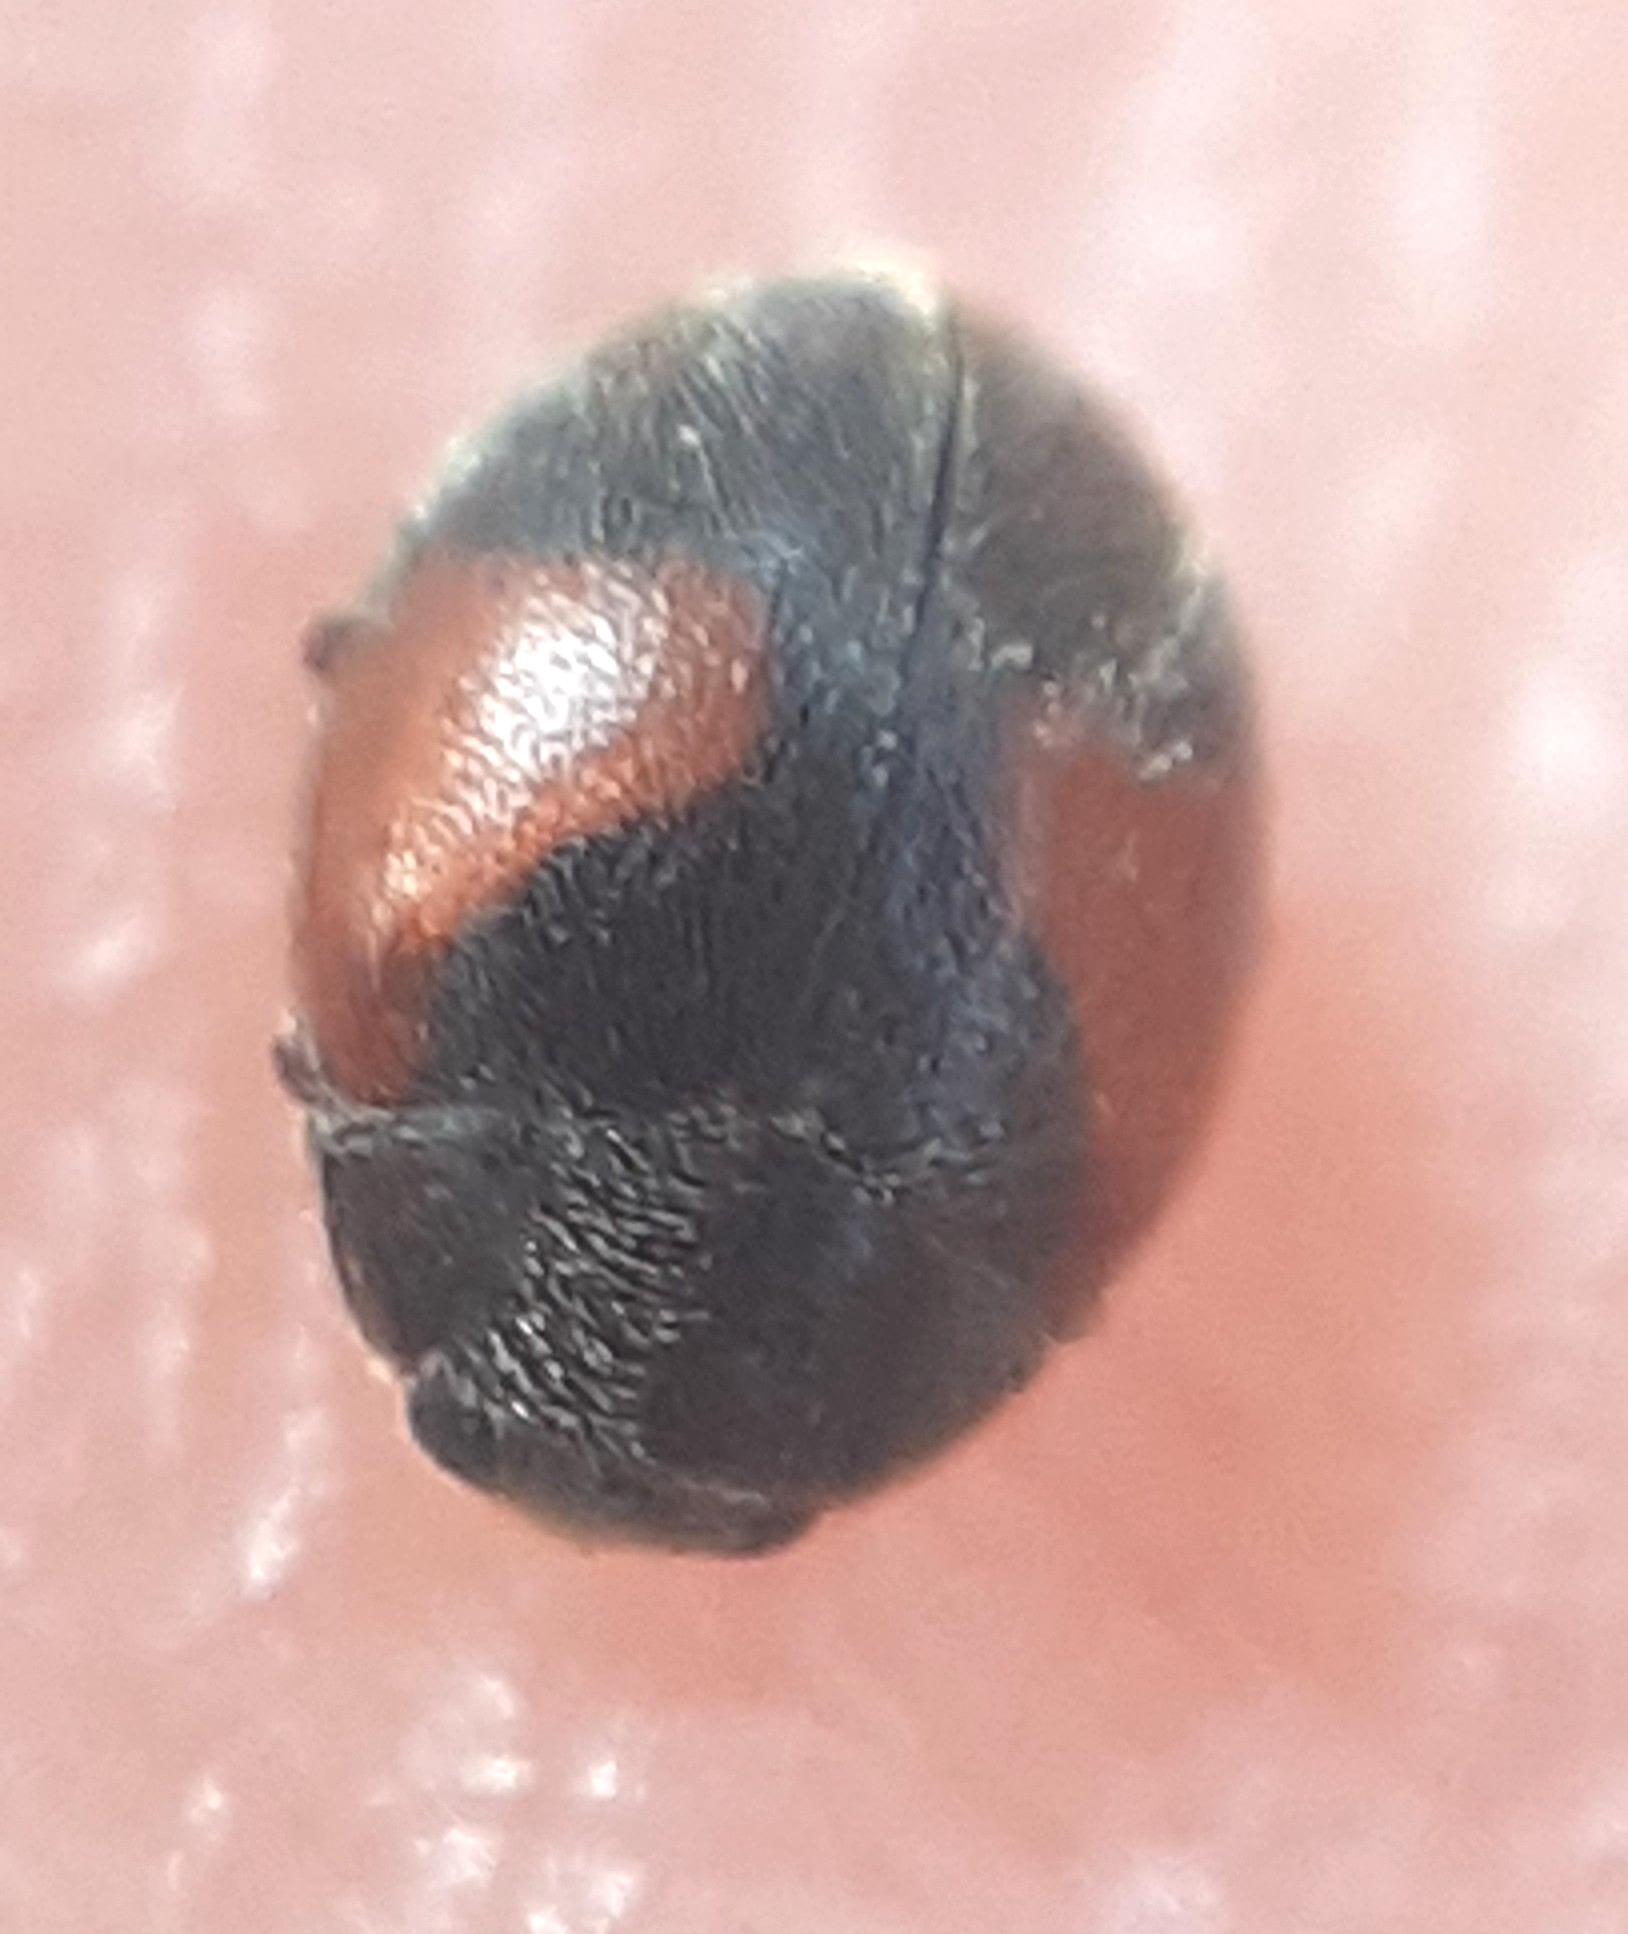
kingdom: Animalia
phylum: Arthropoda
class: Insecta
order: Coleoptera
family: Coccinellidae
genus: Scymnus
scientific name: Scymnus interruptus
